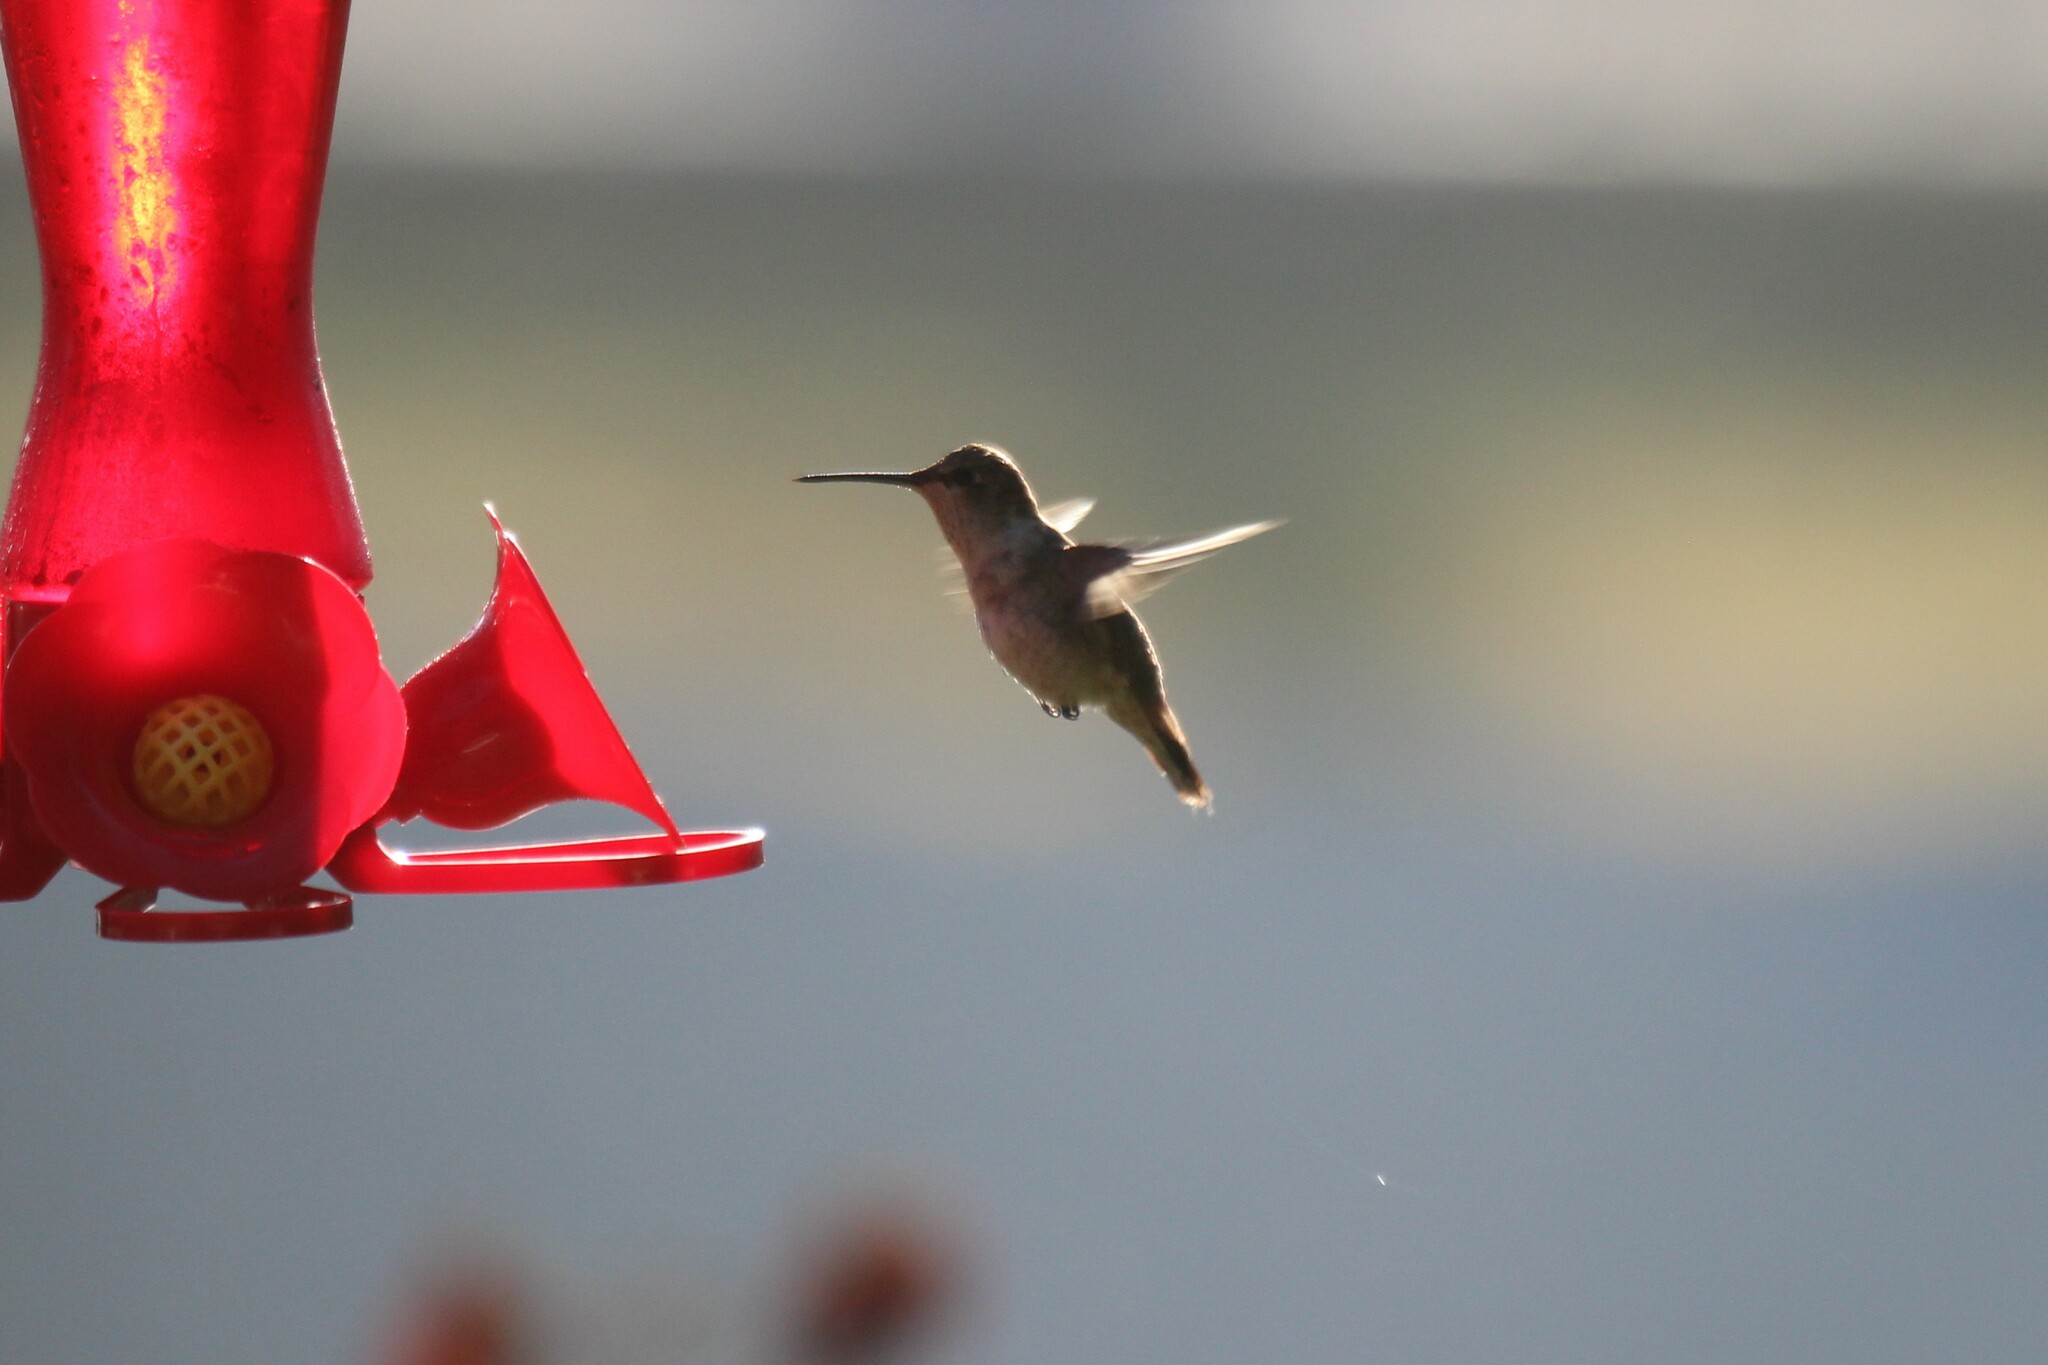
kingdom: Animalia
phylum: Chordata
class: Aves
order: Apodiformes
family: Trochilidae
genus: Archilochus
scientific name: Archilochus colubris
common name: Ruby-throated hummingbird
